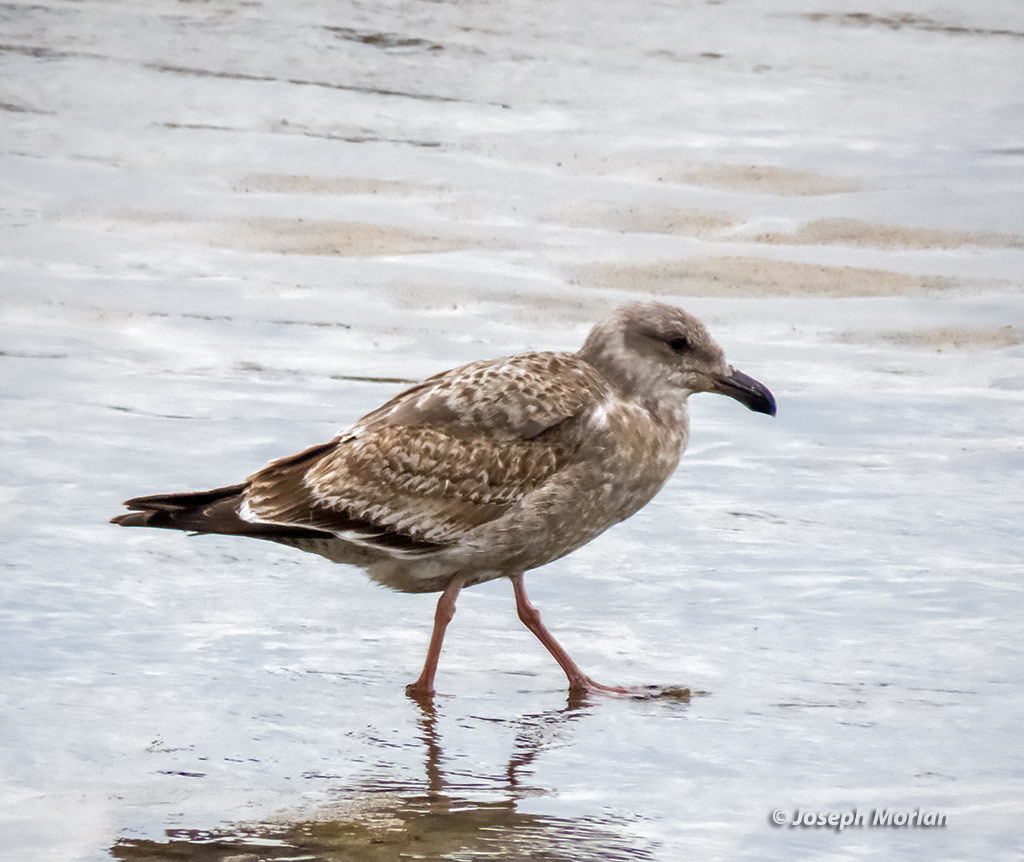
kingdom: Animalia
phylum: Chordata
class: Aves
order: Charadriiformes
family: Laridae
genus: Larus
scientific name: Larus occidentalis
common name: Western gull
